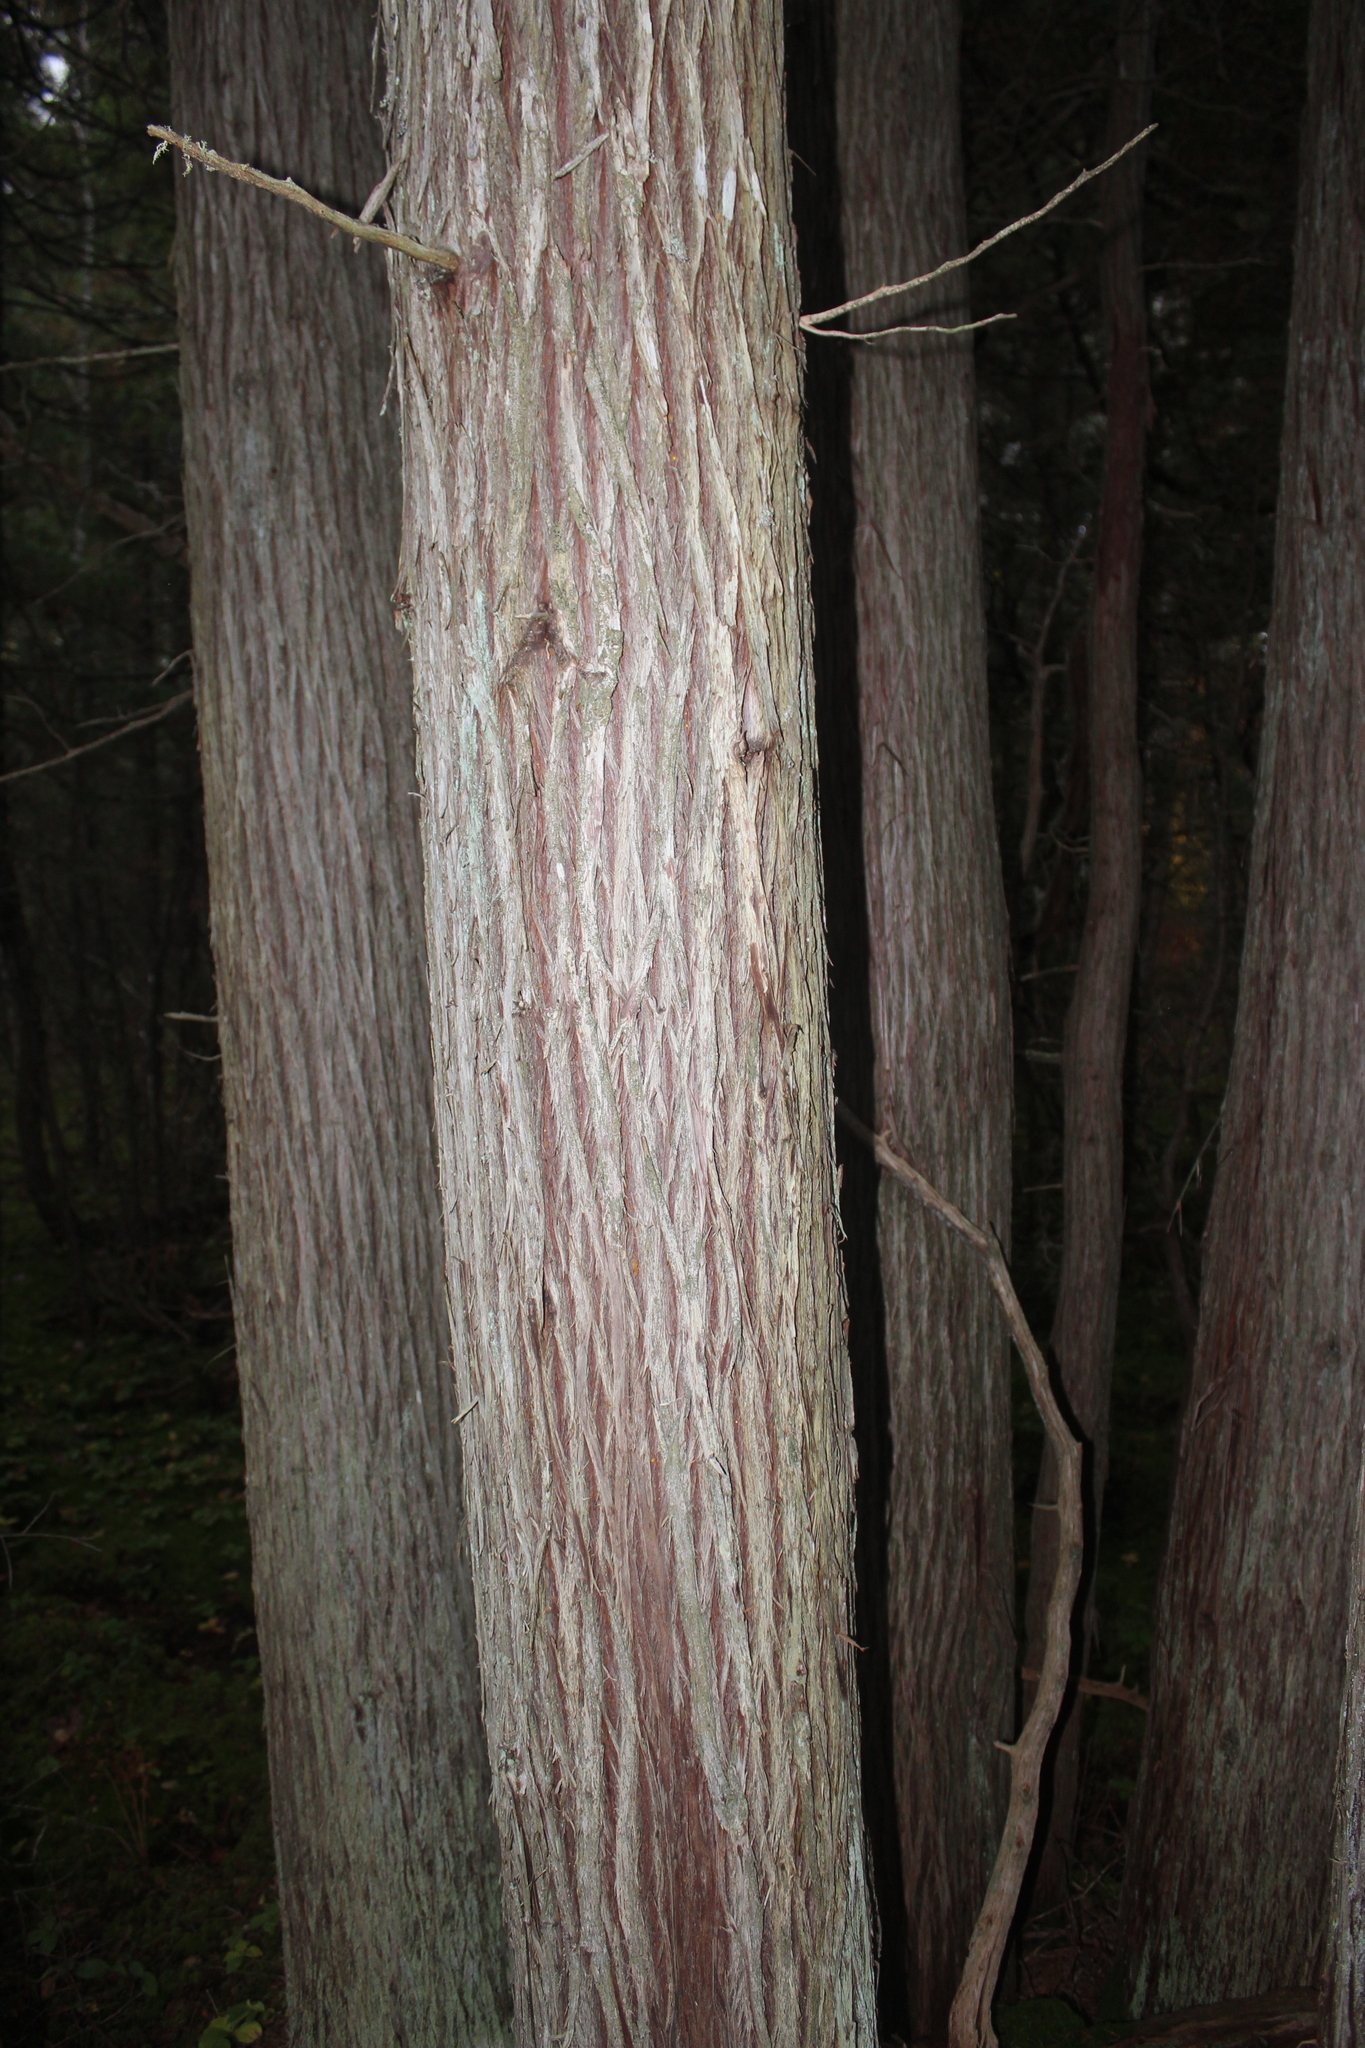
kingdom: Plantae
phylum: Tracheophyta
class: Pinopsida
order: Pinales
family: Cupressaceae
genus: Chamaecyparis
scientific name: Chamaecyparis thyoides
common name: Atlantic white cedar
